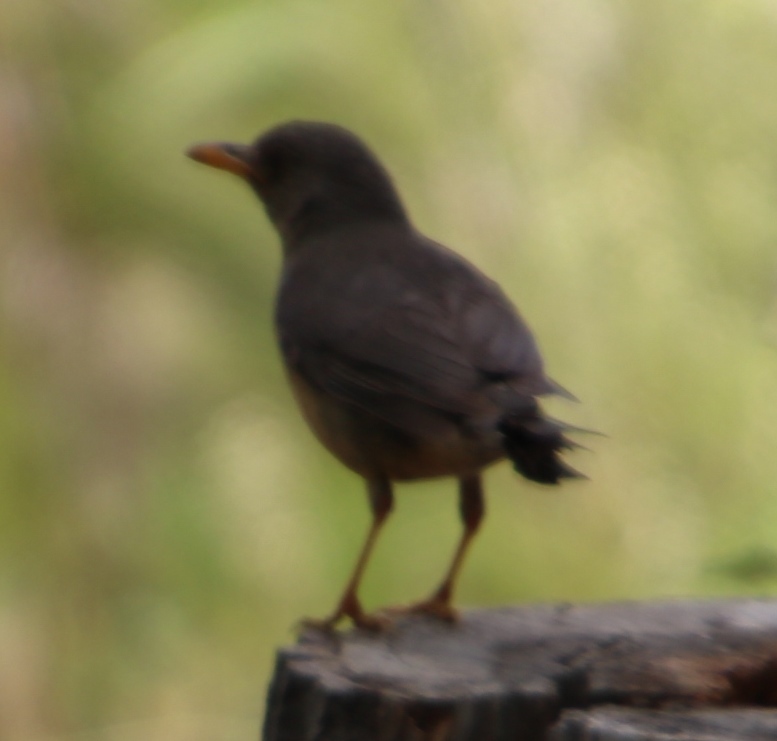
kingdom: Animalia
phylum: Chordata
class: Aves
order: Passeriformes
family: Turdidae
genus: Turdus
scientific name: Turdus olivaceus
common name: Olive thrush
